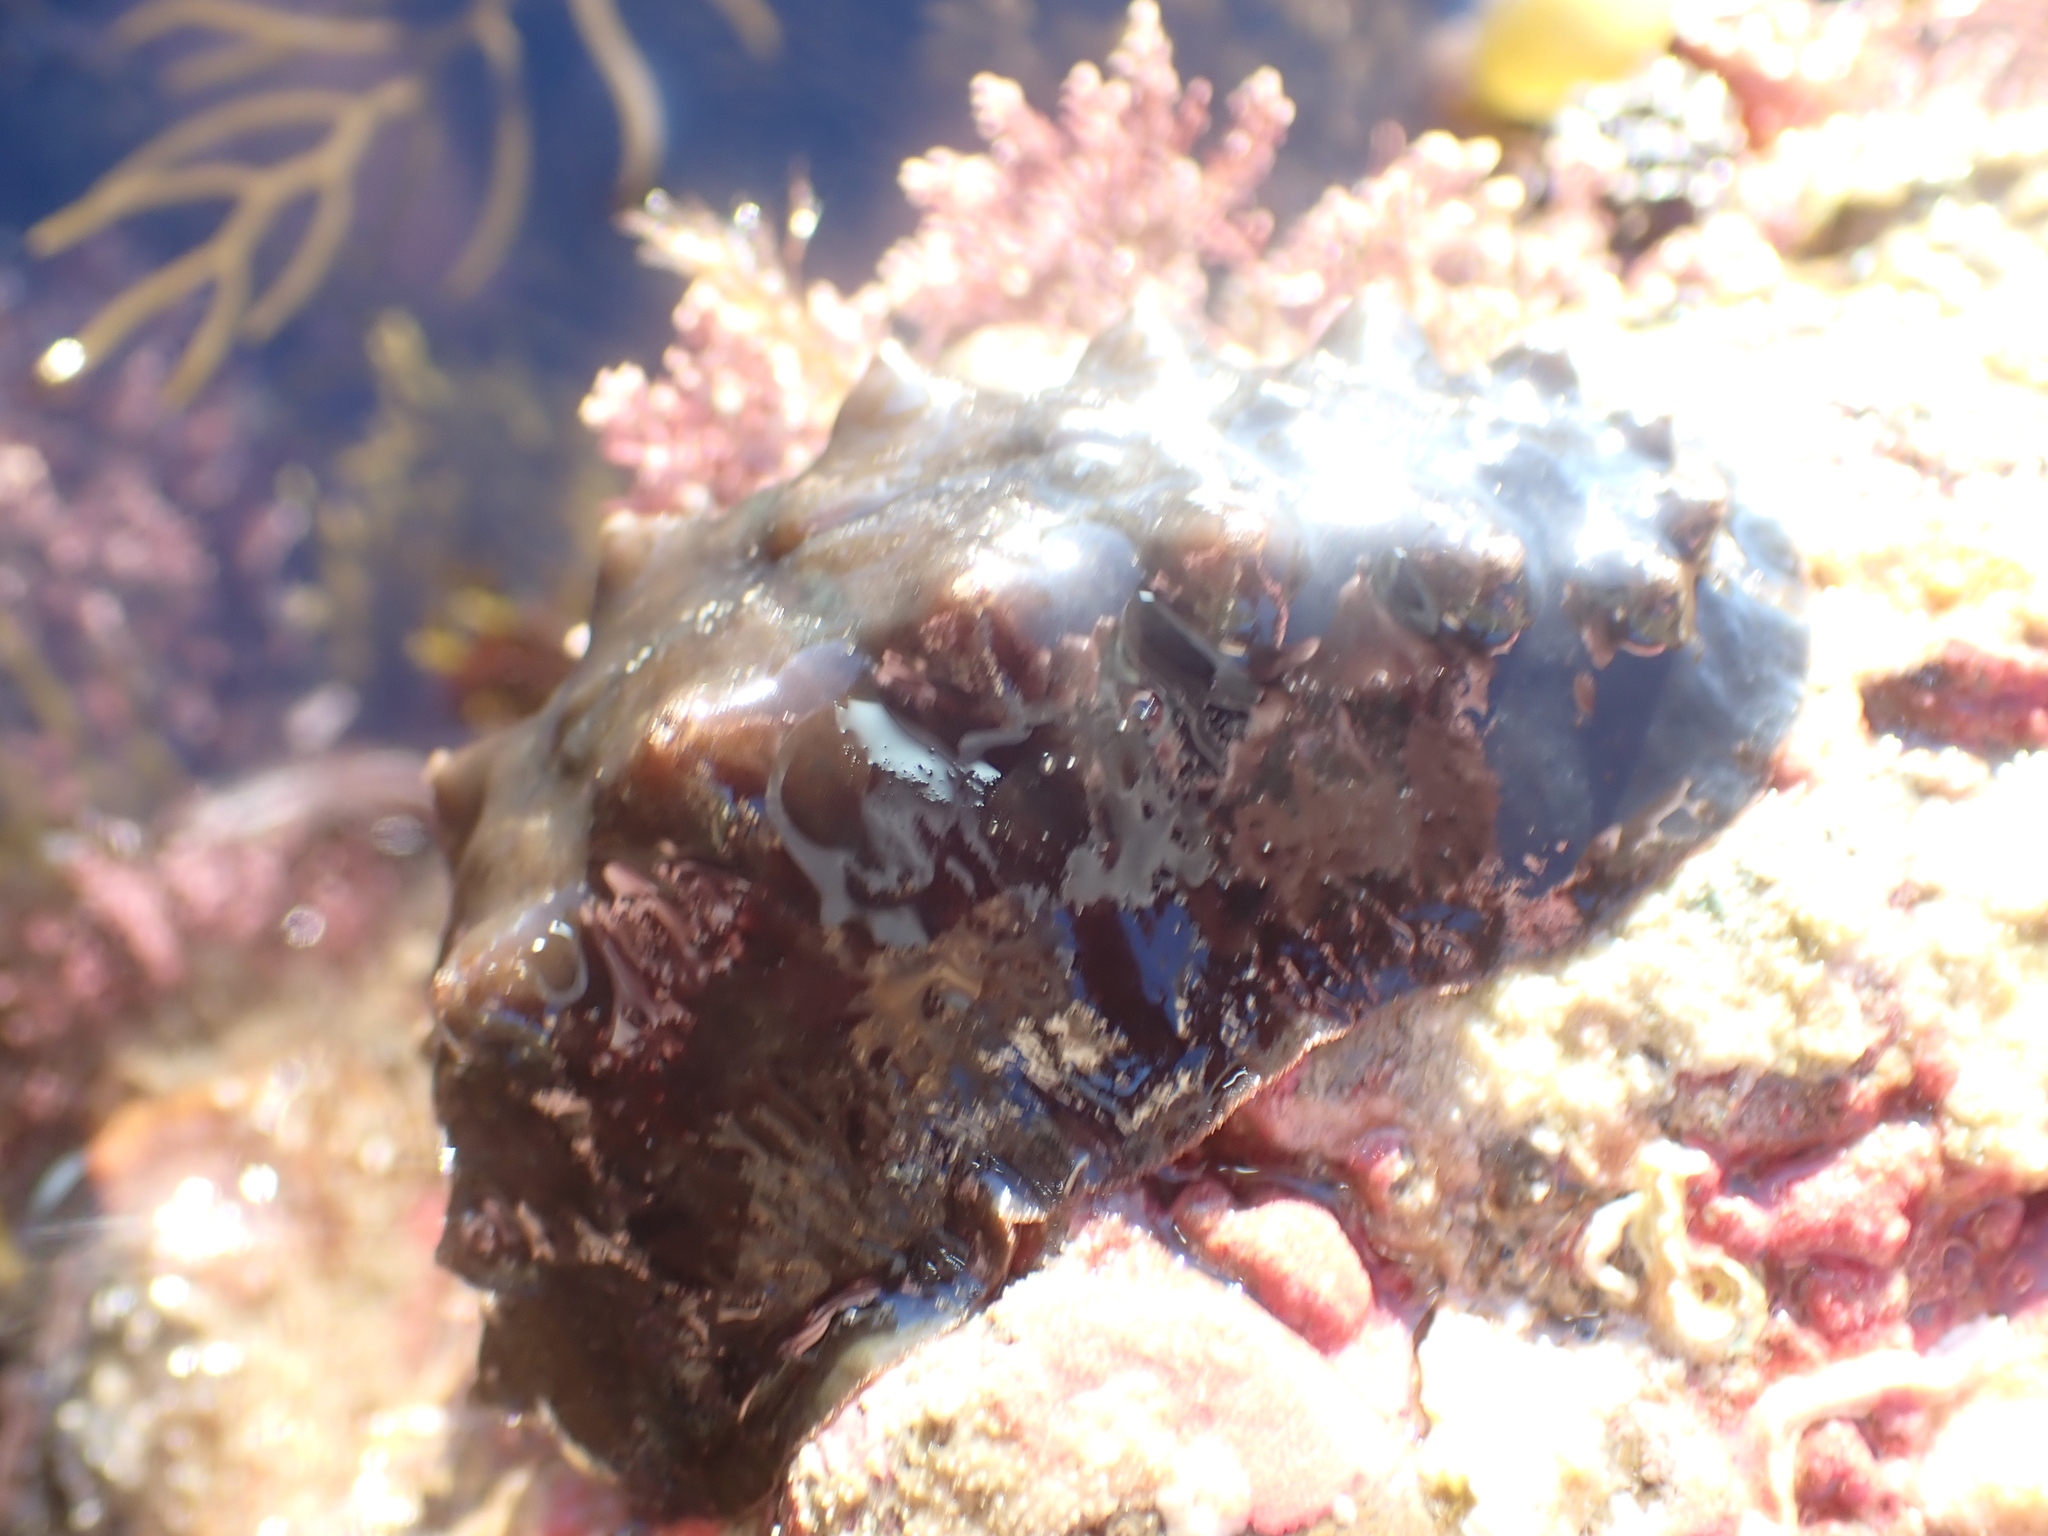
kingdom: Animalia
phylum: Mollusca
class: Polyplacophora
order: Chitonida
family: Acanthochitonidae
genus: Cryptoconchus
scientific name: Cryptoconchus porosus
